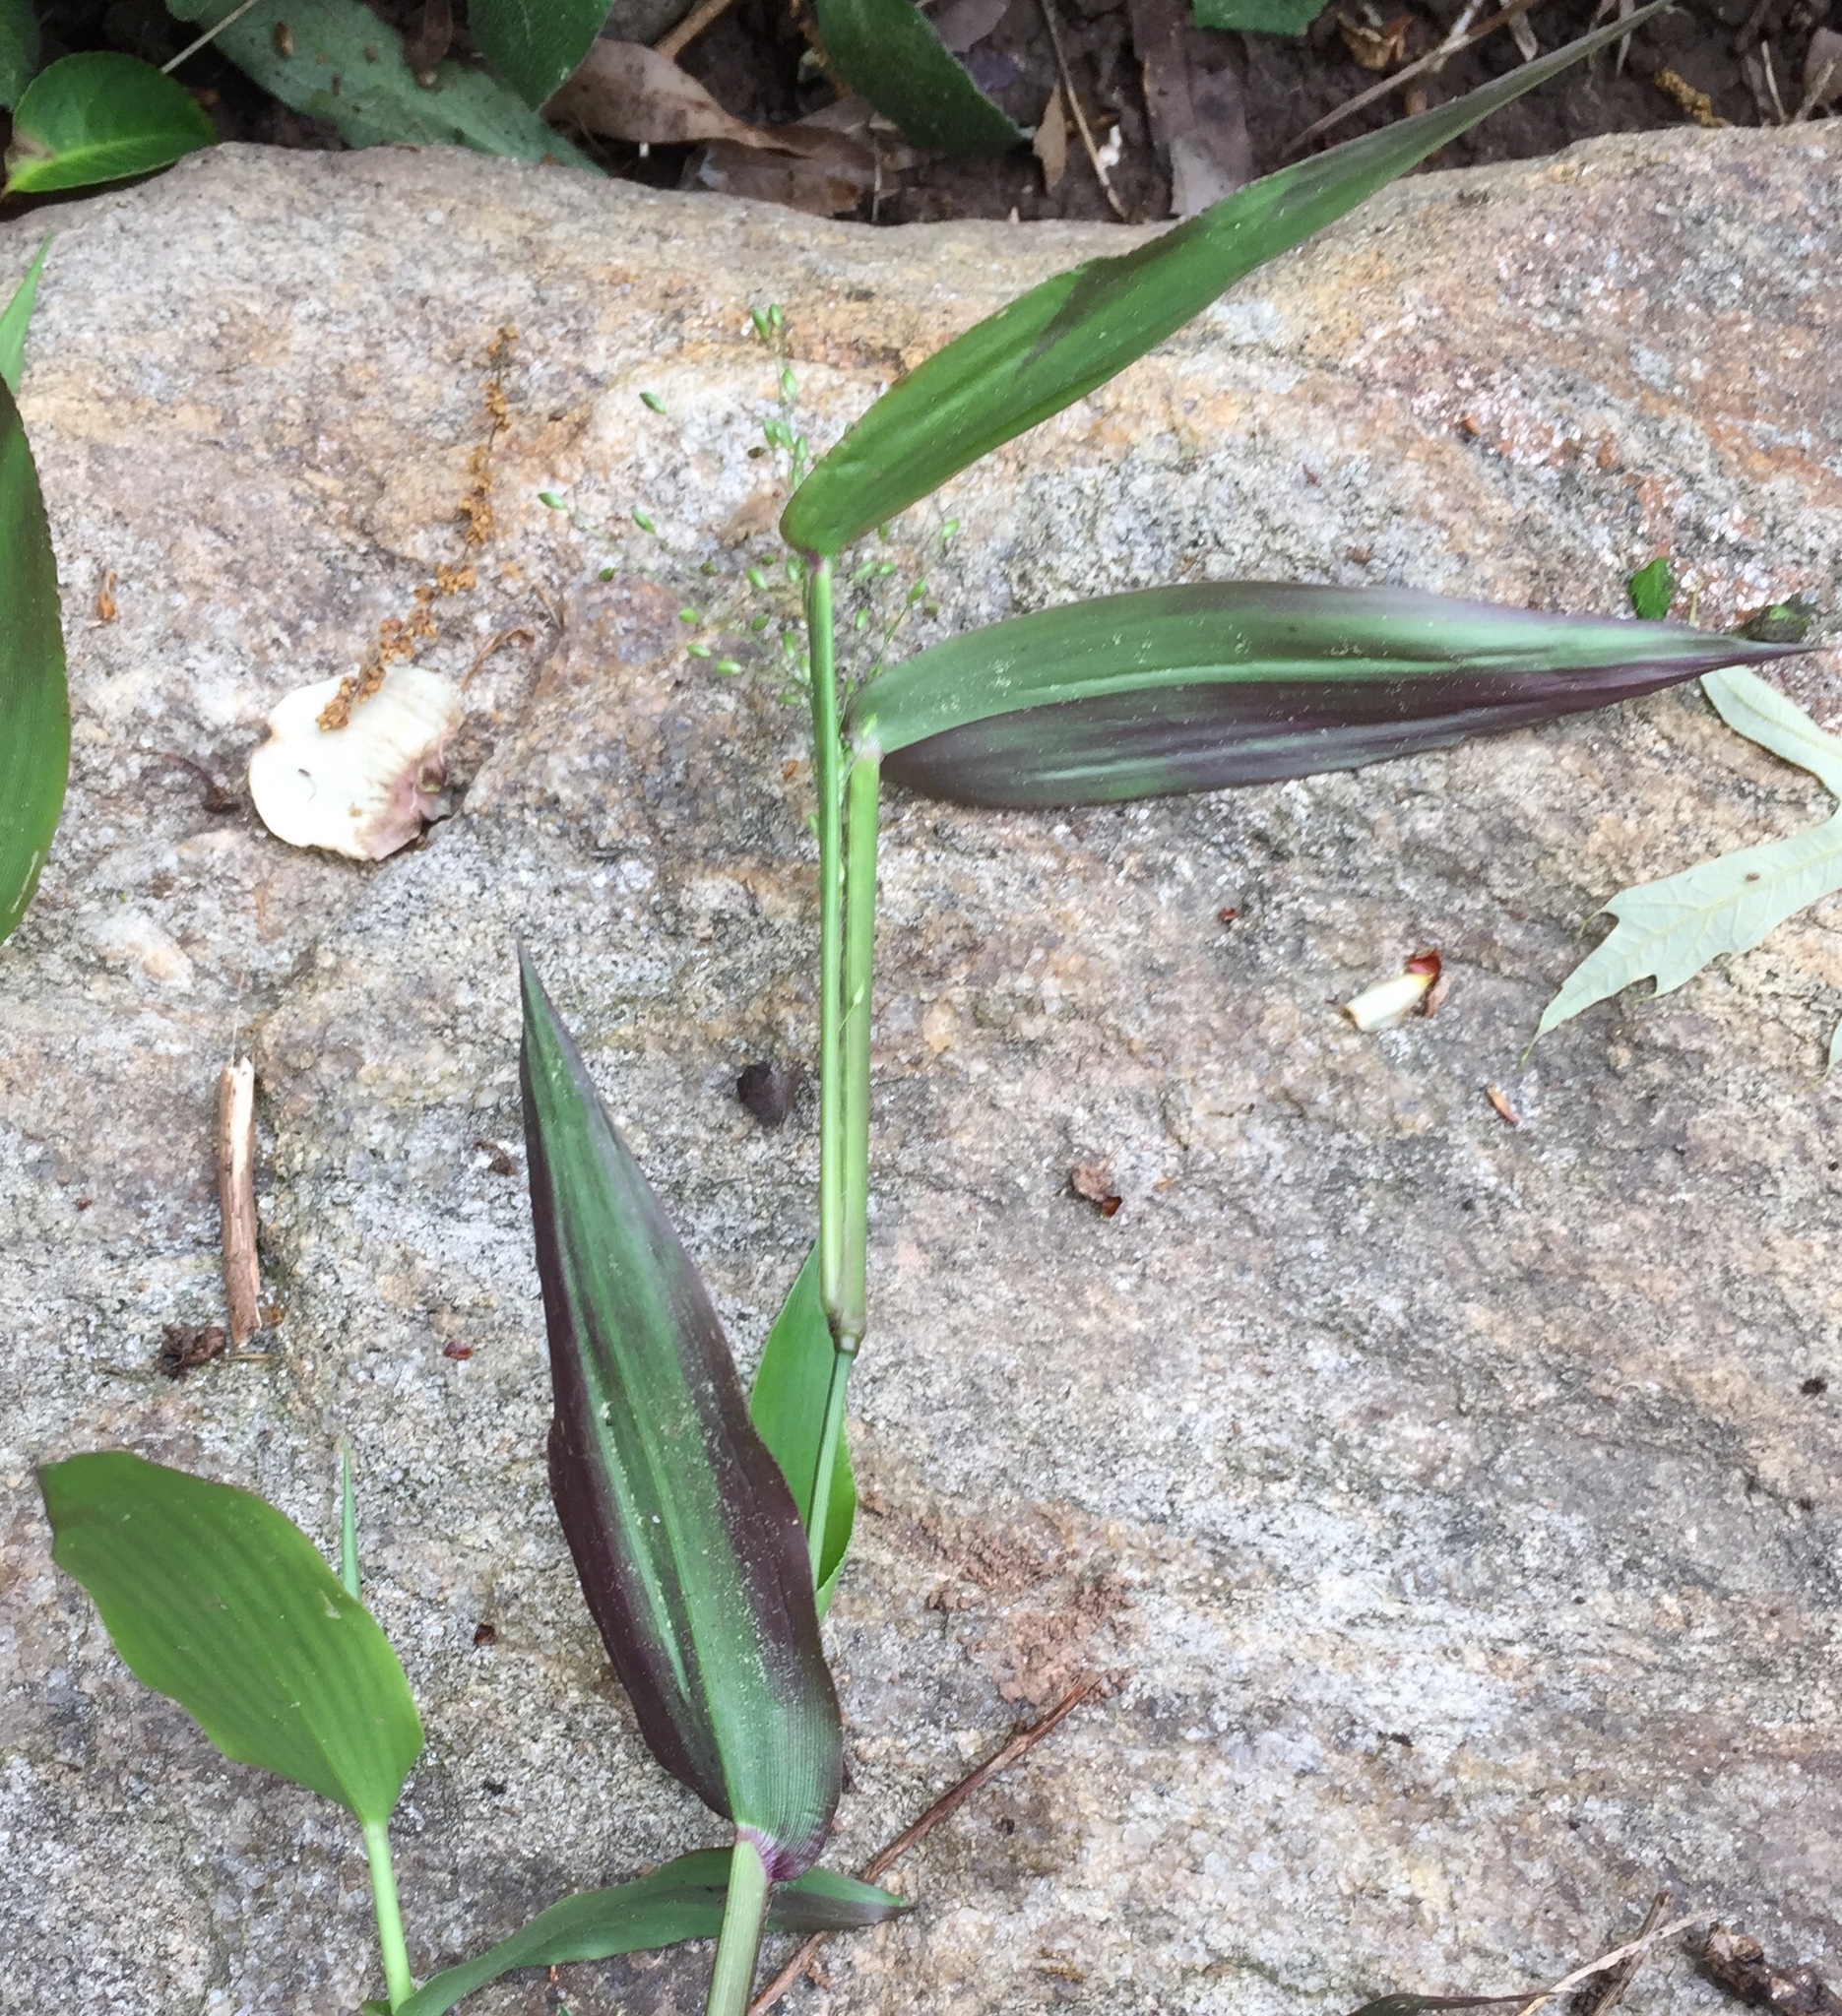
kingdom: Plantae
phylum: Tracheophyta
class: Liliopsida
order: Poales
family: Poaceae
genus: Dichanthelium
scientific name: Dichanthelium clandestinum
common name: Deer-tongue grass
